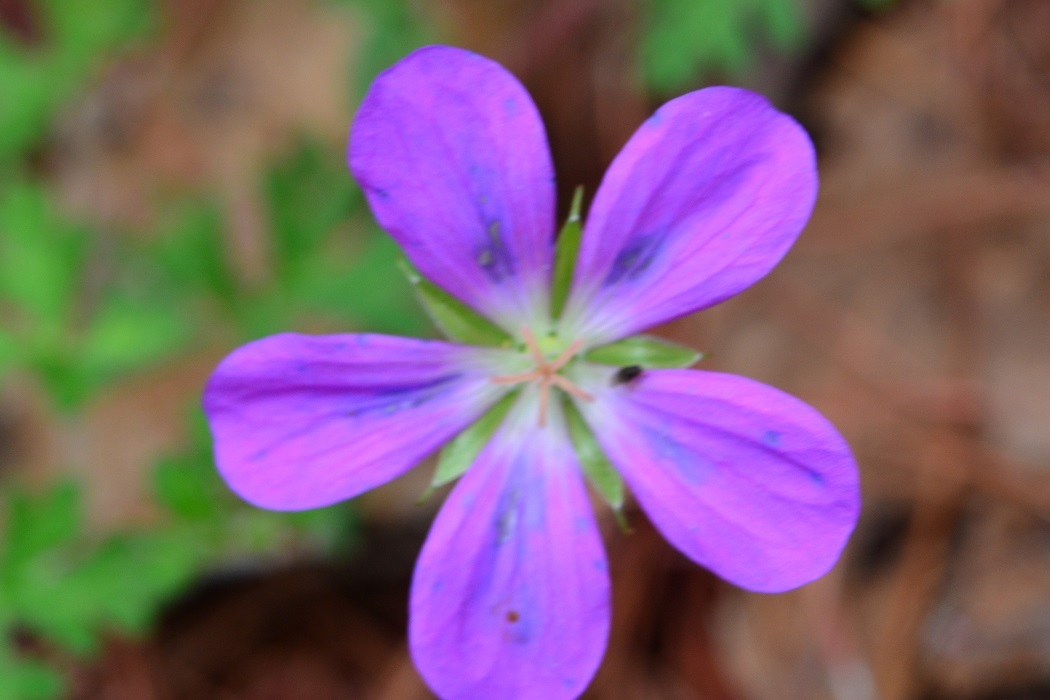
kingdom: Plantae
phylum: Tracheophyta
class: Magnoliopsida
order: Geraniales
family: Geraniaceae
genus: Geranium
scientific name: Geranium goldmanii
